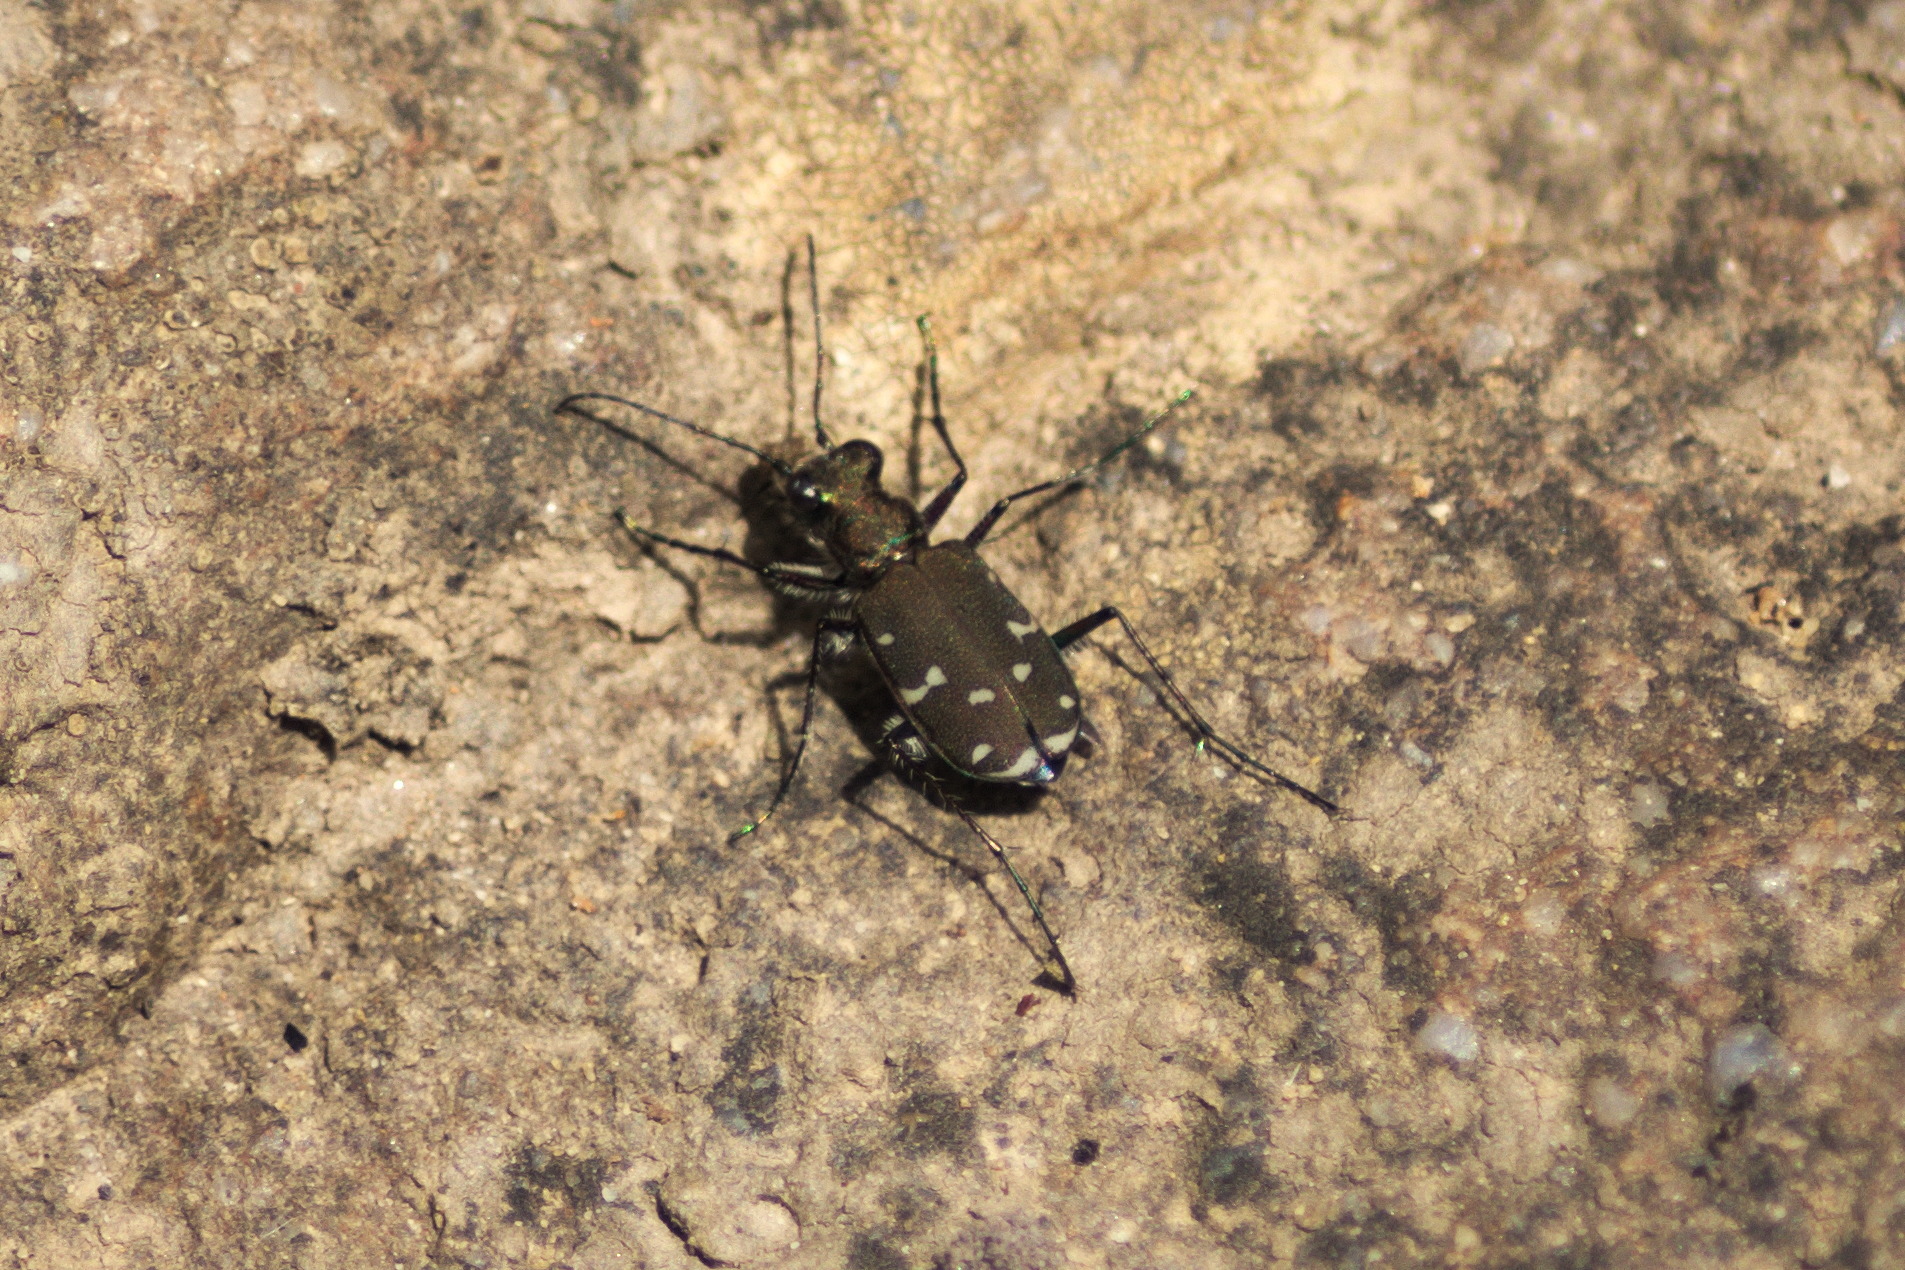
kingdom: Animalia
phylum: Arthropoda
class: Insecta
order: Coleoptera
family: Carabidae
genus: Cicindela
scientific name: Cicindela duodecimguttata
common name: Twelve-spotted tiger beetle
